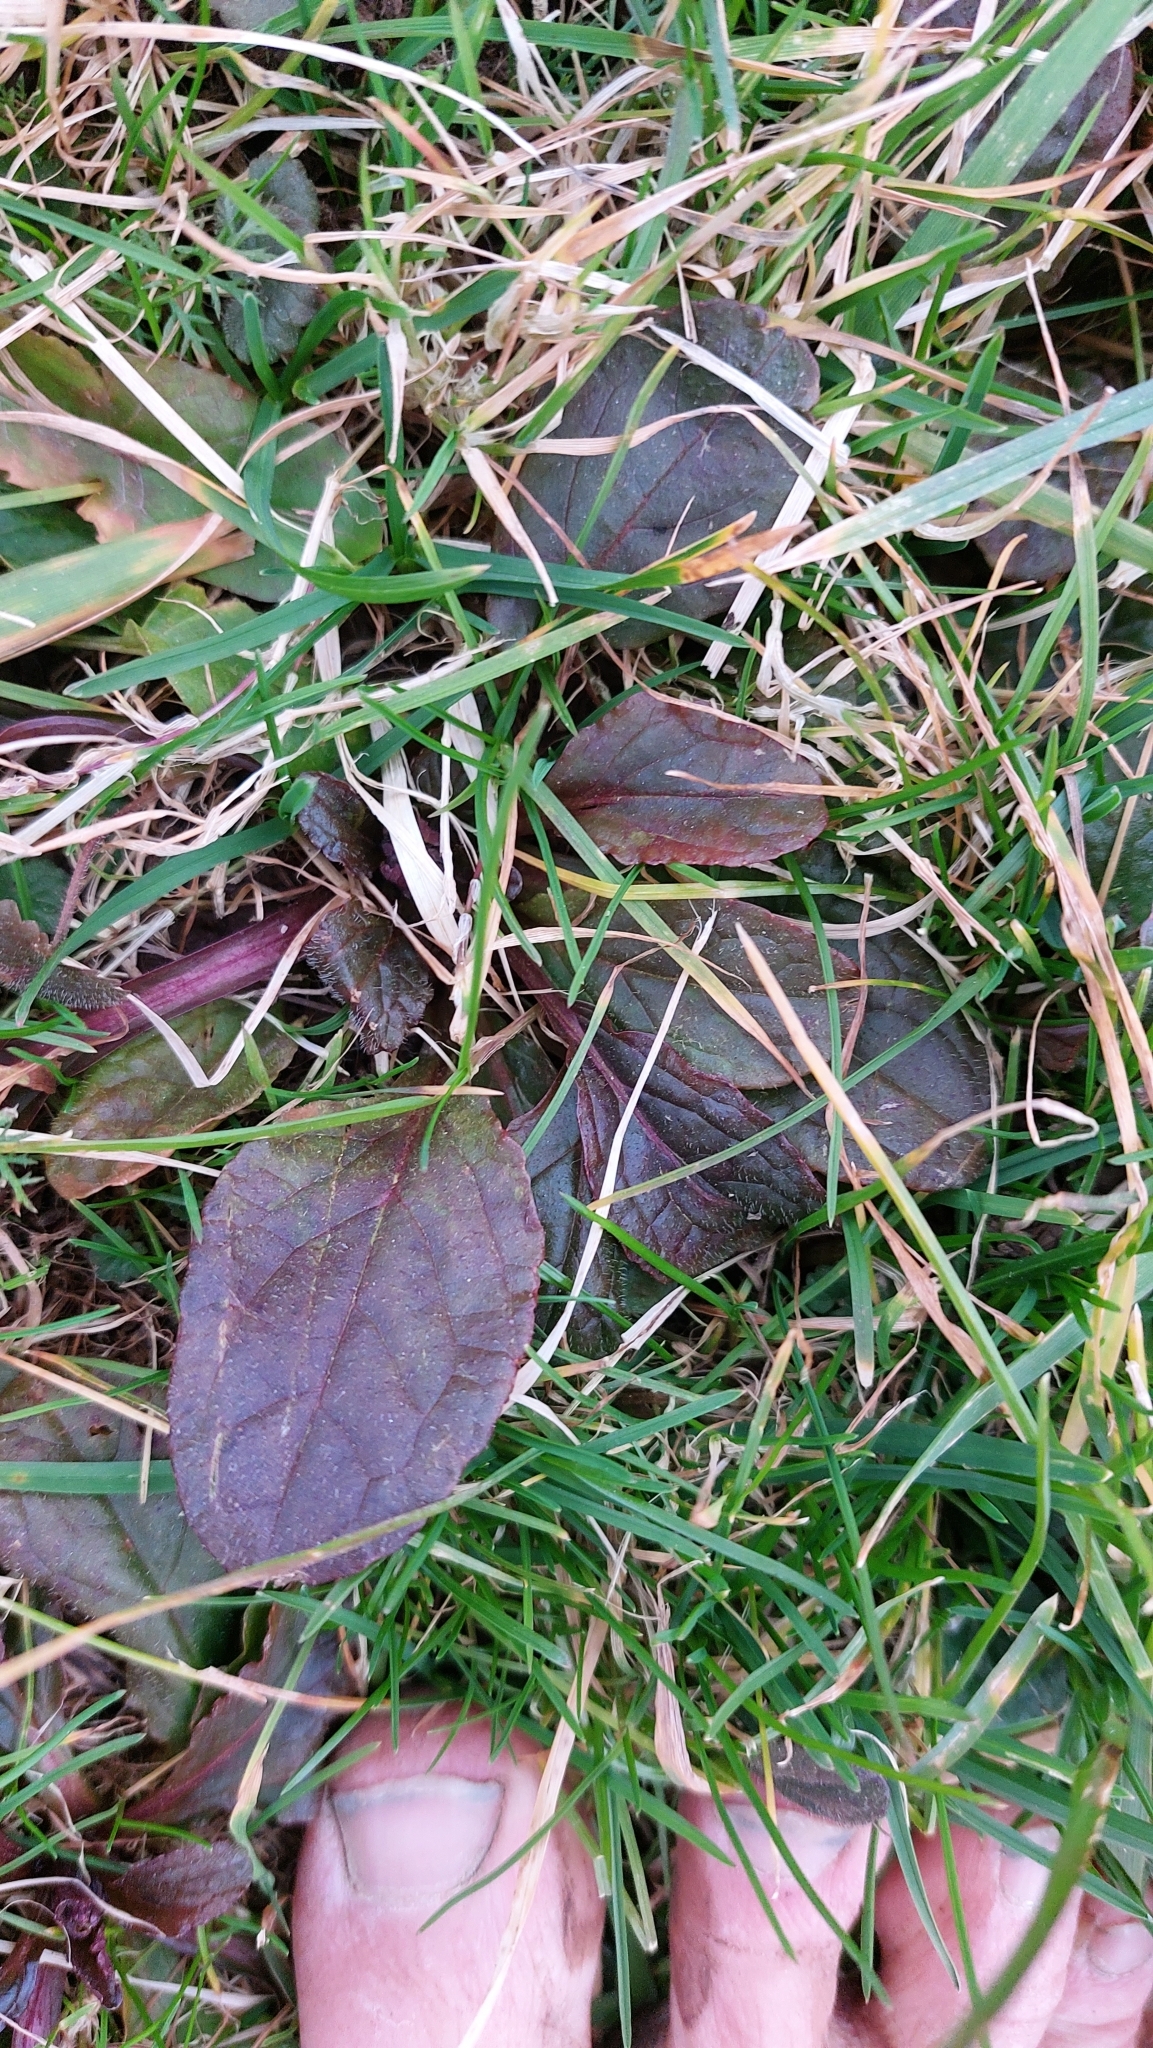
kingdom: Plantae
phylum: Tracheophyta
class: Magnoliopsida
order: Lamiales
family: Lamiaceae
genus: Ajuga
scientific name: Ajuga reptans
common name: Bugle
